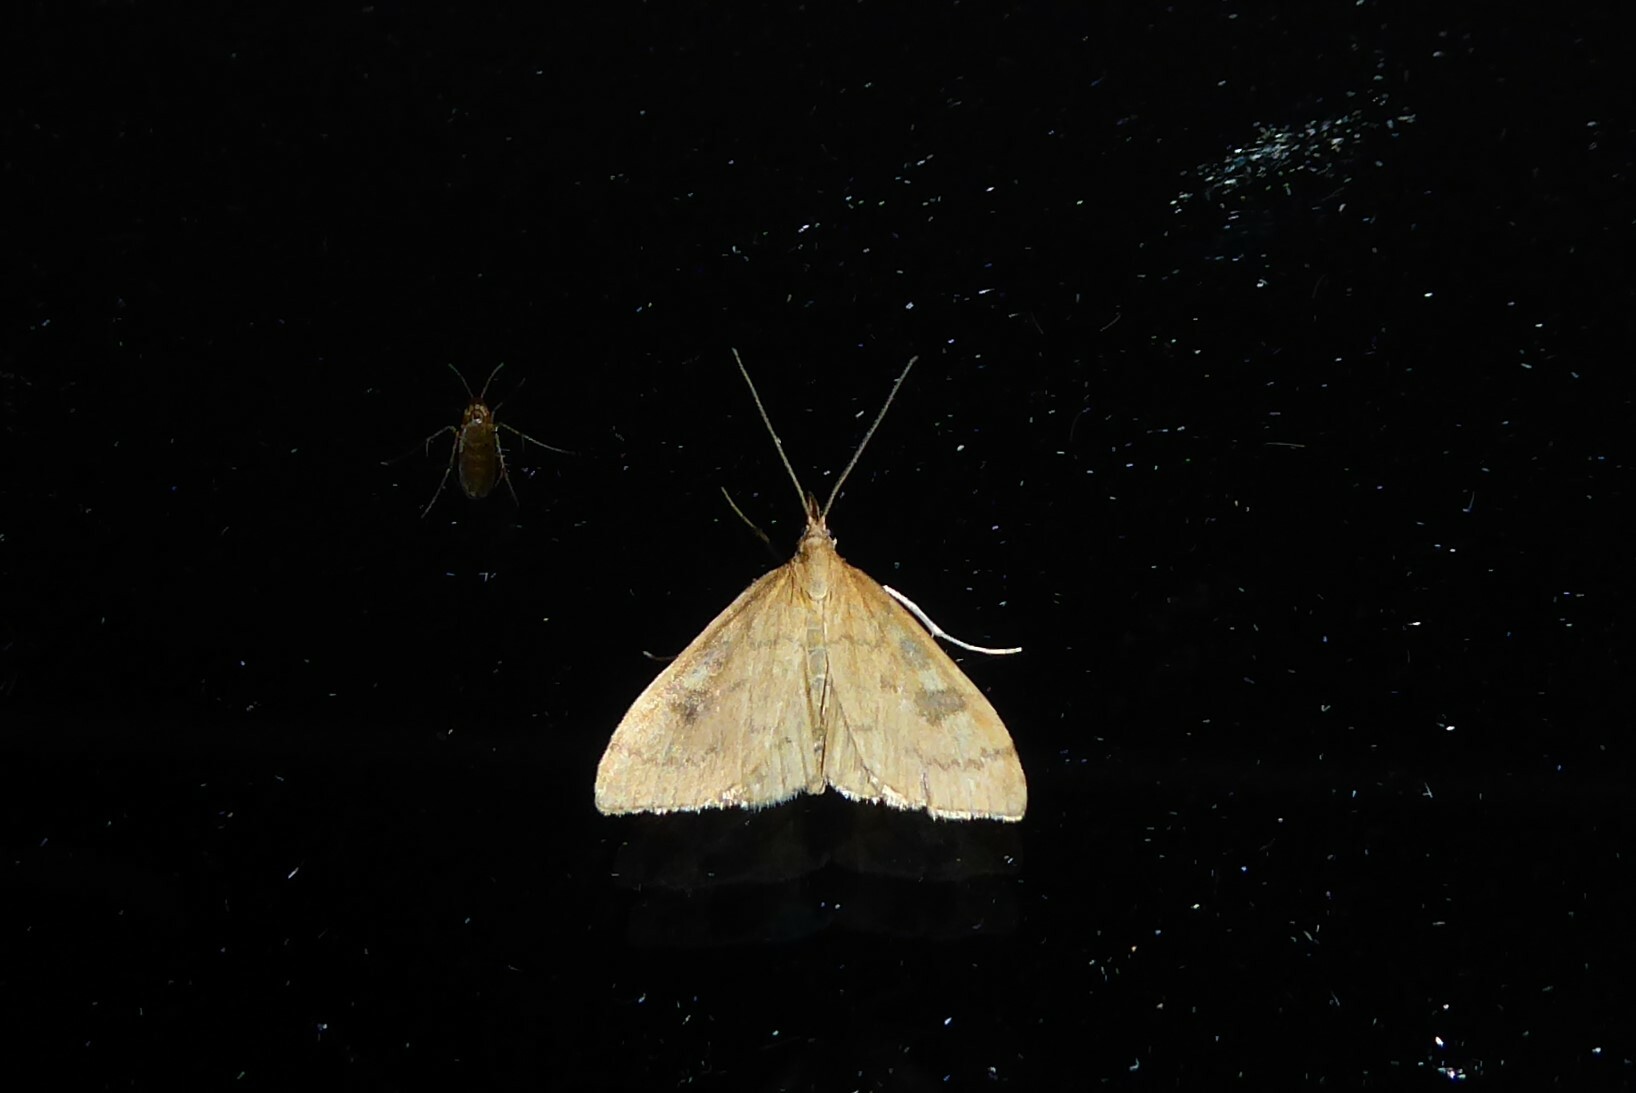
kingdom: Animalia
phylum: Arthropoda
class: Insecta
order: Lepidoptera
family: Crambidae
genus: Udea
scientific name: Udea Mnesictena flavidalis
